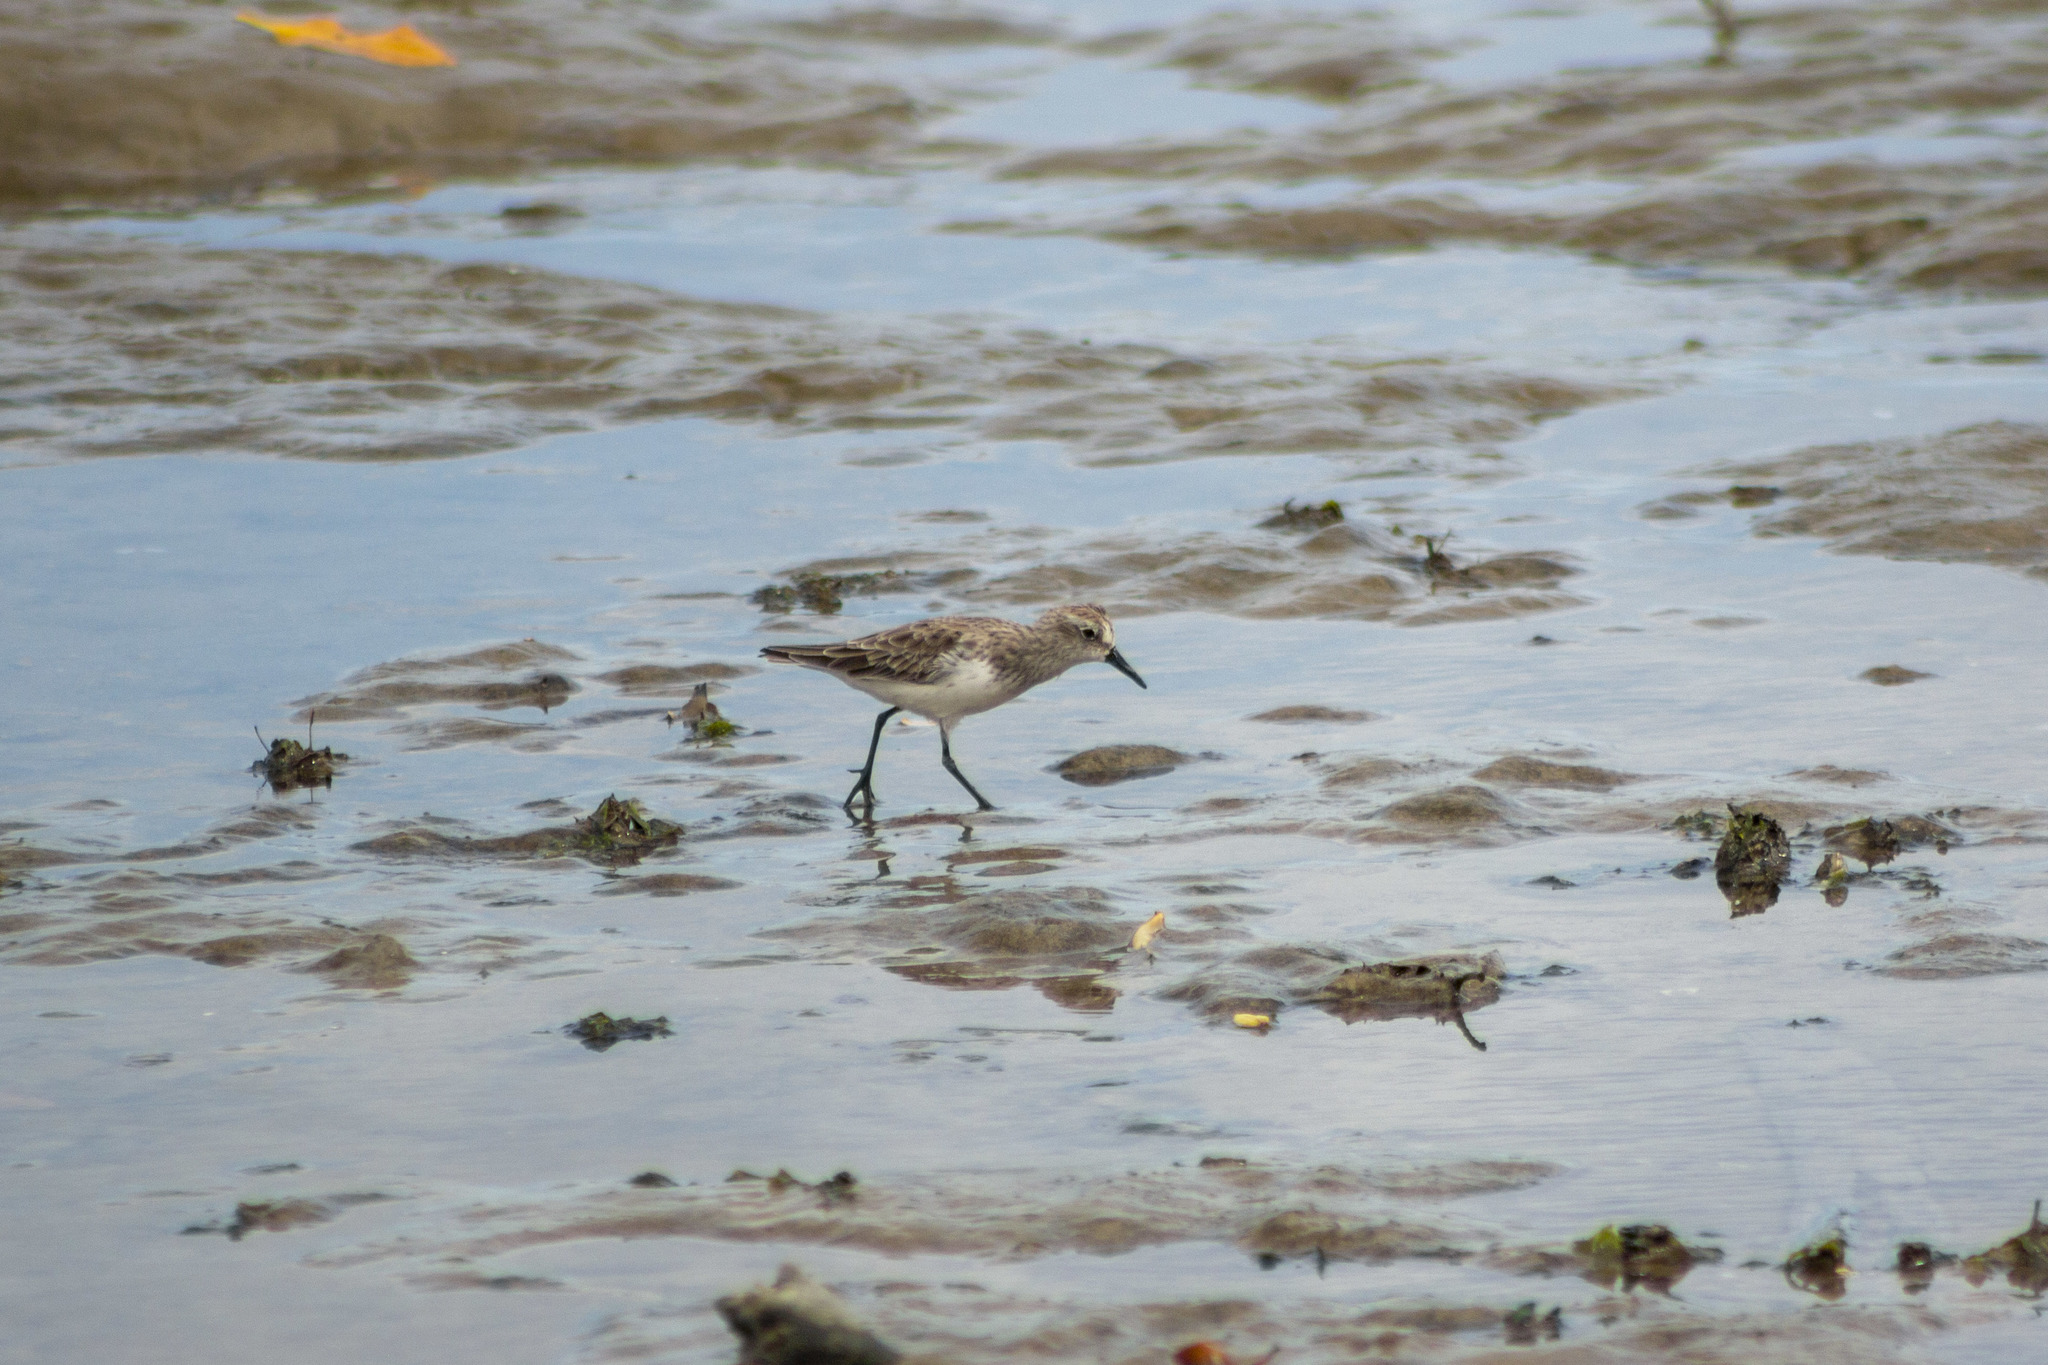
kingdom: Animalia
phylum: Chordata
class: Aves
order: Charadriiformes
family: Scolopacidae
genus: Calidris
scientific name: Calidris pusilla
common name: Semipalmated sandpiper
